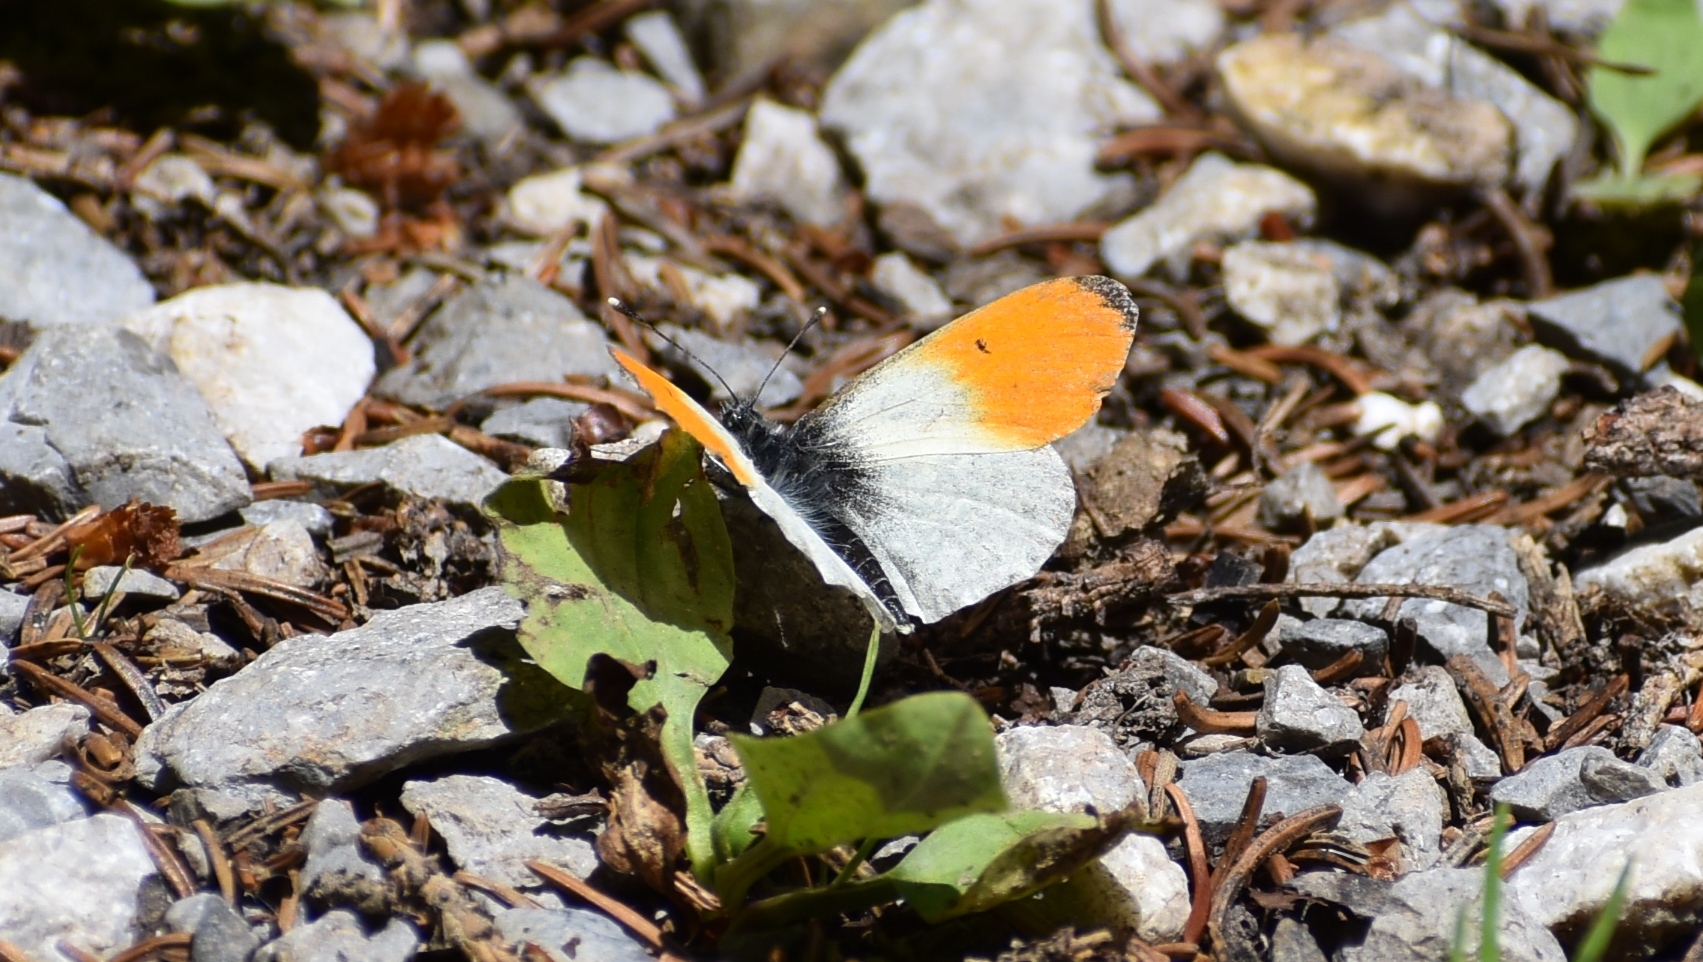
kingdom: Animalia
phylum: Arthropoda
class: Insecta
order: Lepidoptera
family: Pieridae
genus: Anthocharis
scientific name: Anthocharis cardamines
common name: Orange-tip
